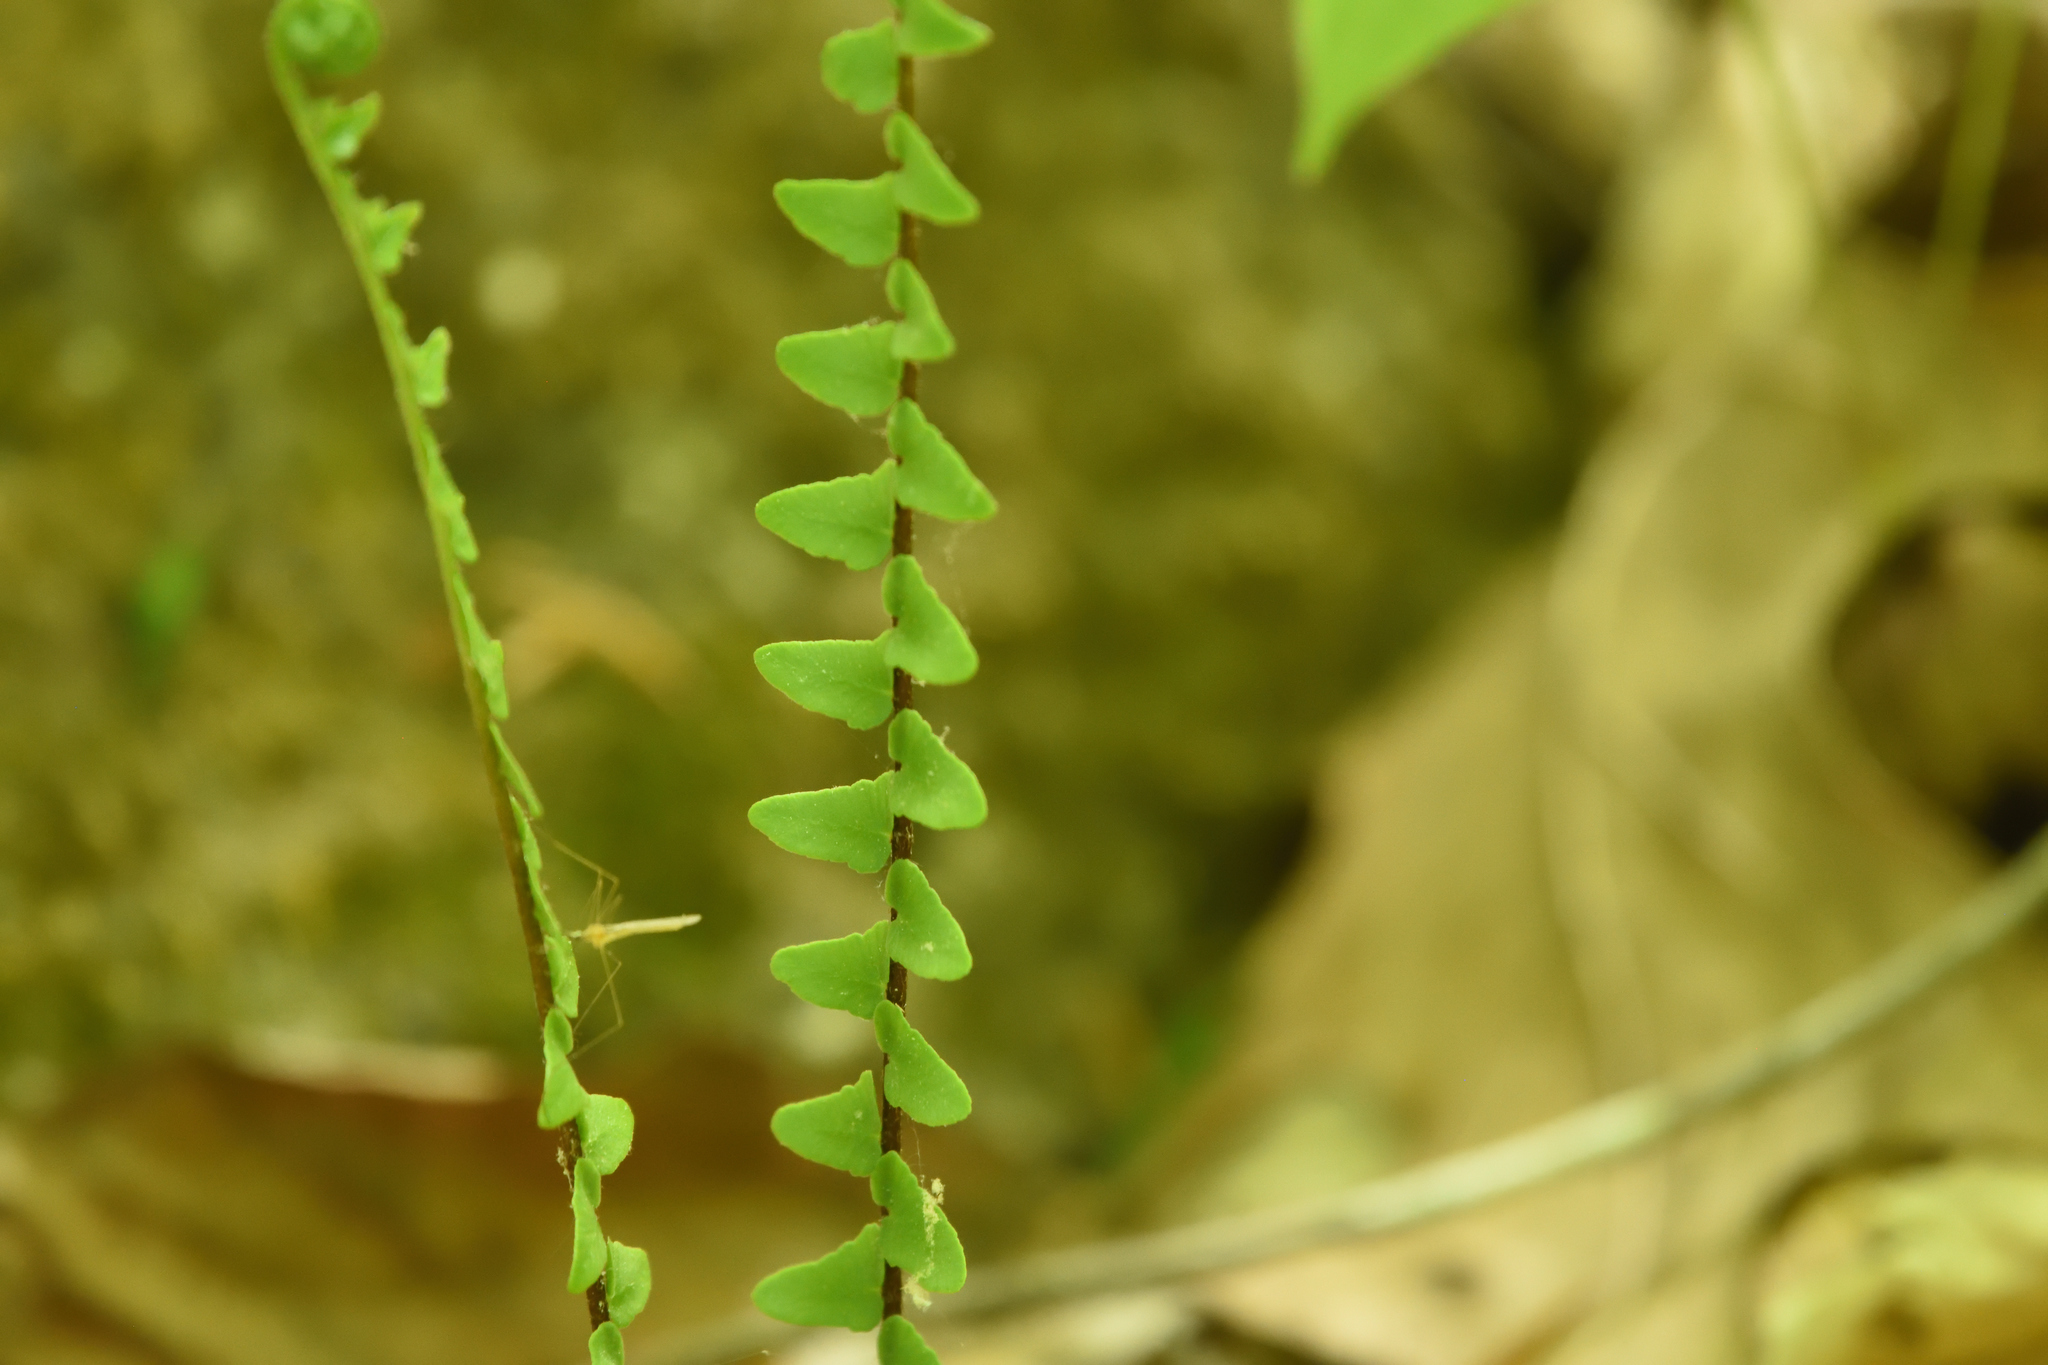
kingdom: Plantae
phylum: Tracheophyta
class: Polypodiopsida
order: Polypodiales
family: Aspleniaceae
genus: Asplenium
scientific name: Asplenium platyneuron
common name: Ebony spleenwort
